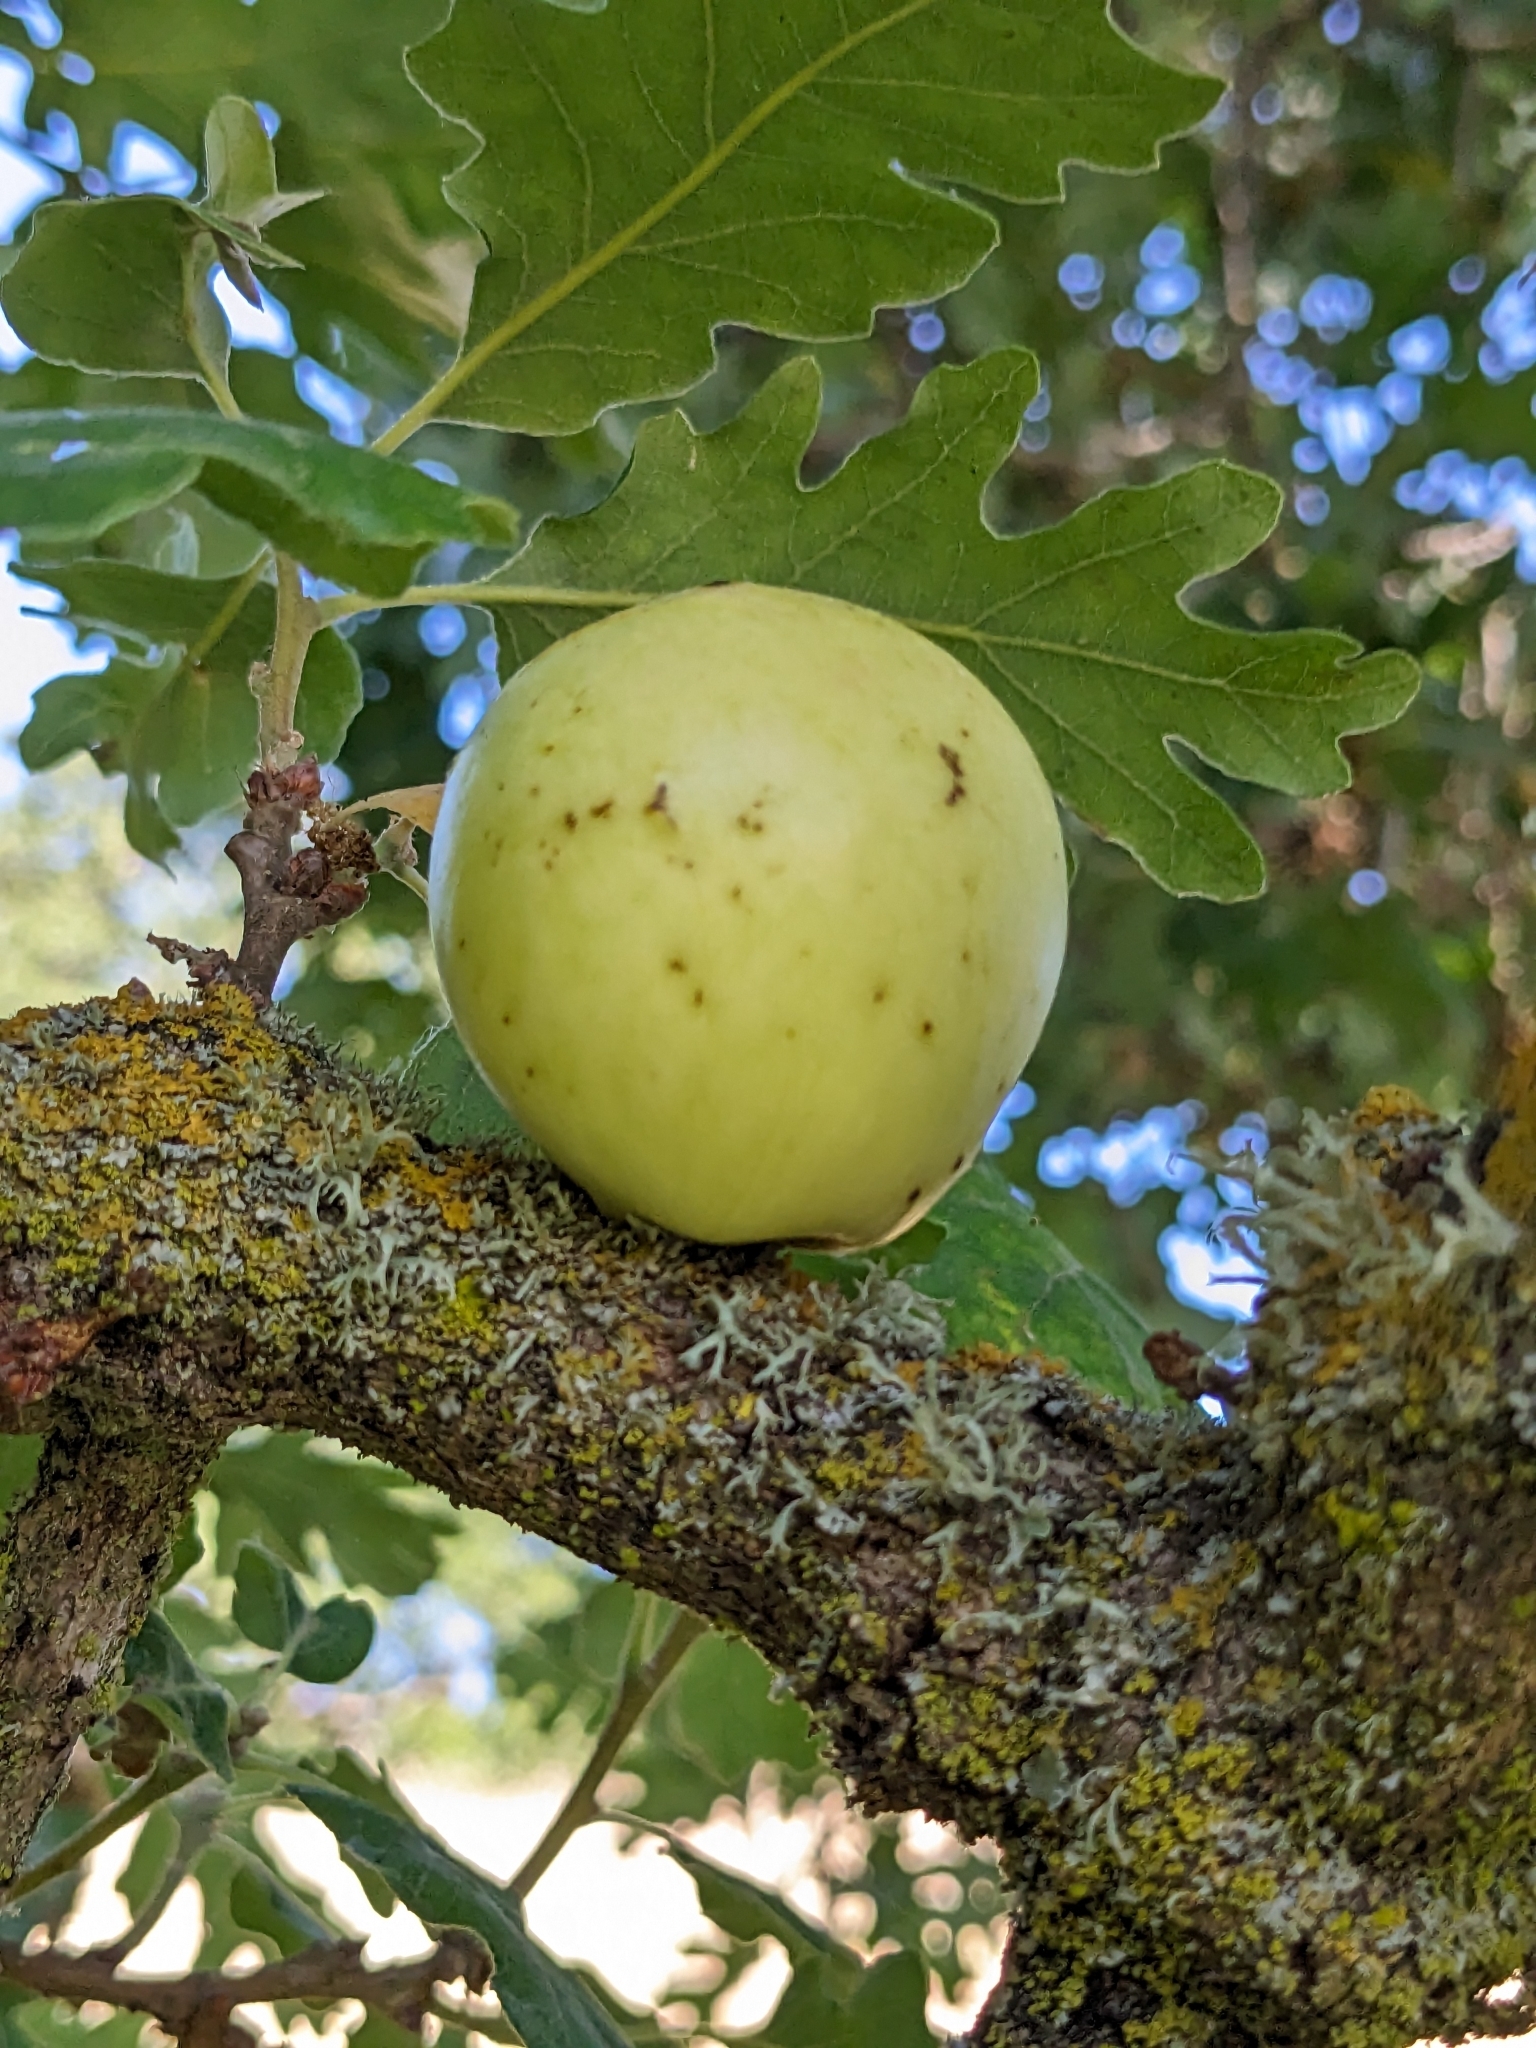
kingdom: Animalia
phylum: Arthropoda
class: Insecta
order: Hymenoptera
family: Cynipidae
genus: Andricus
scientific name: Andricus quercuscalifornicus
